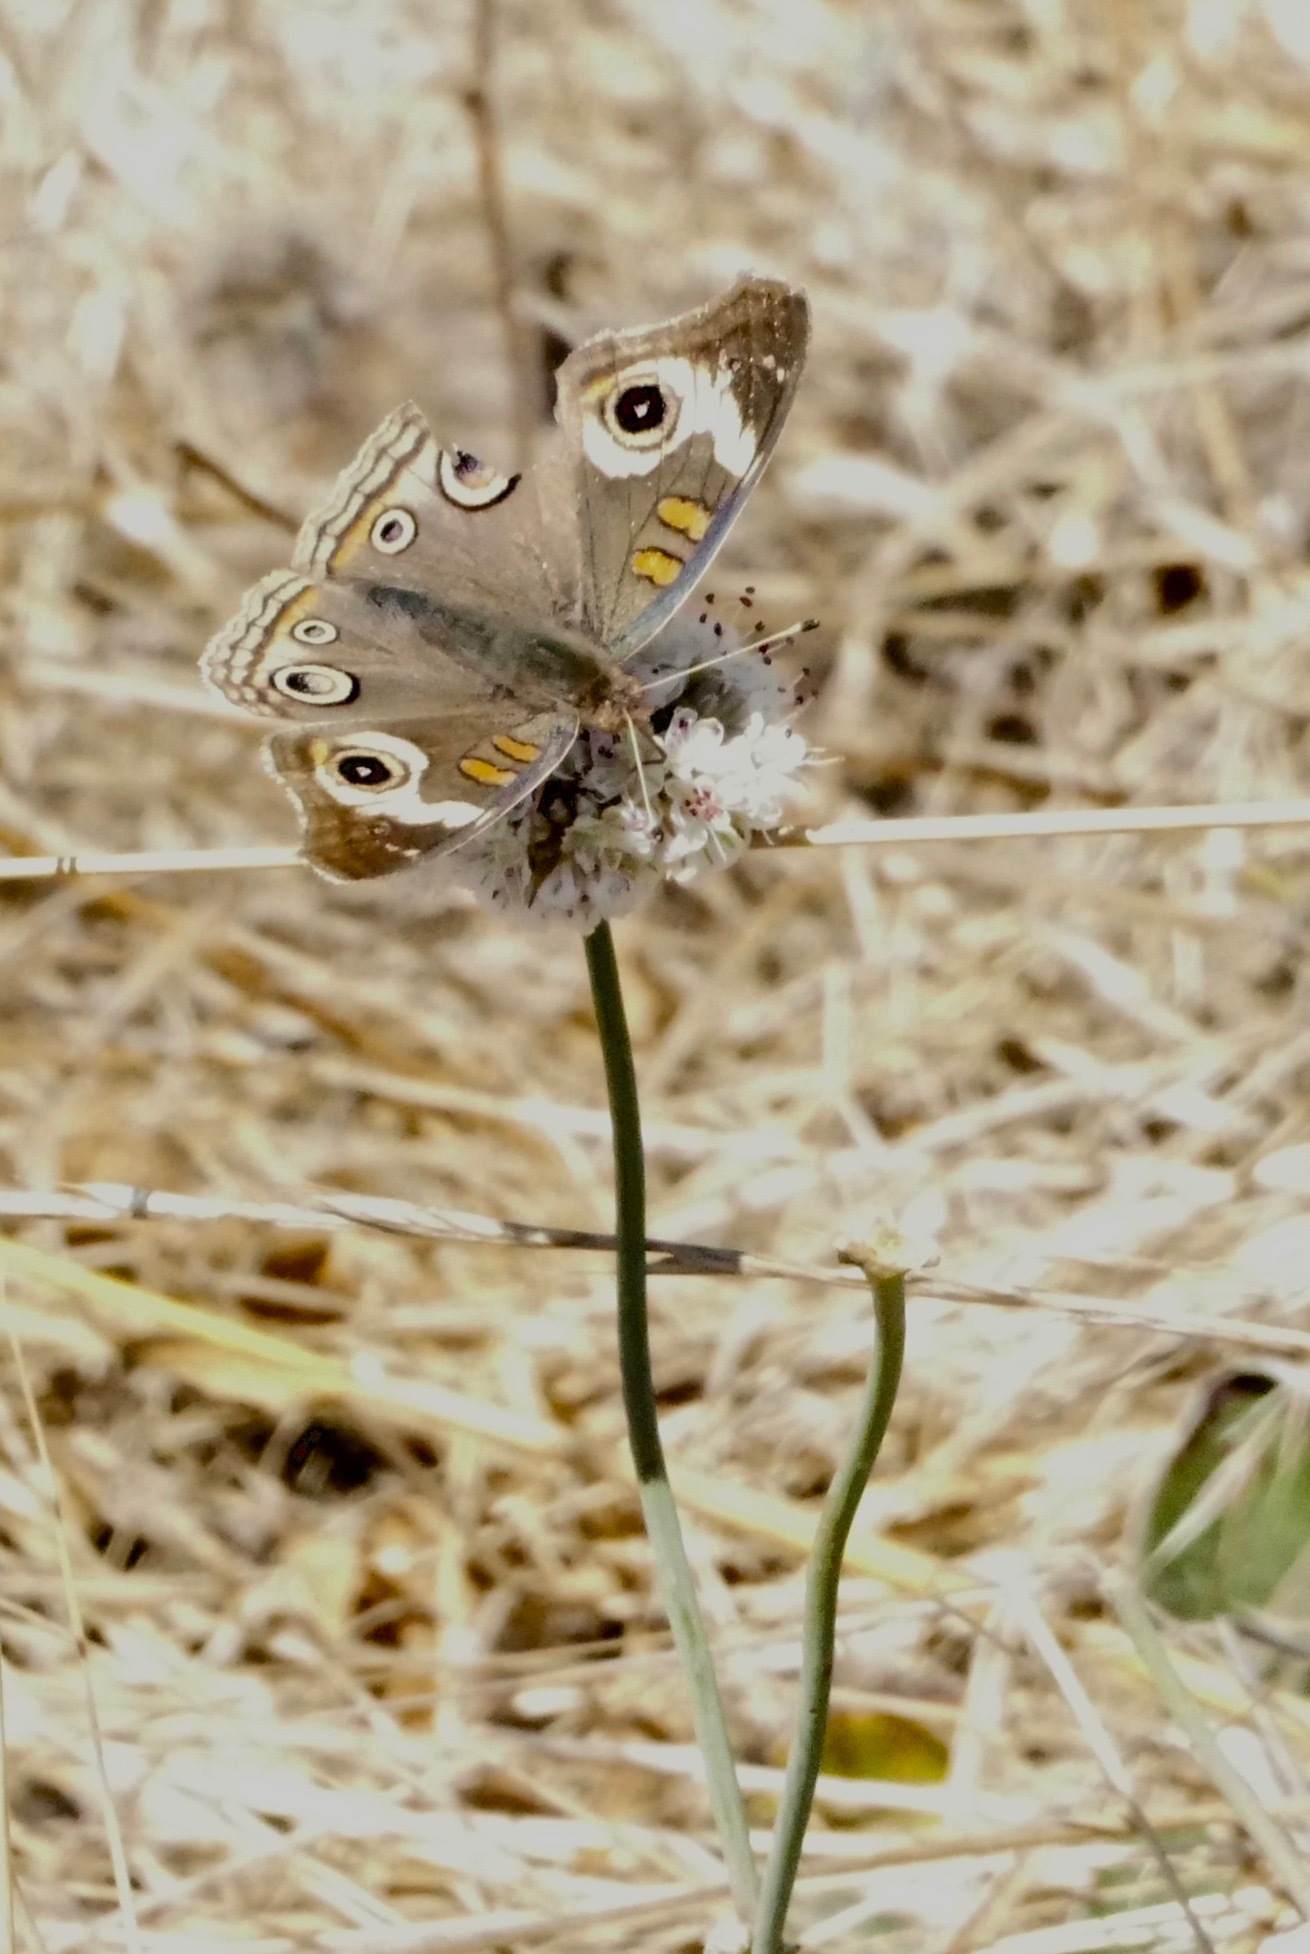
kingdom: Animalia
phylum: Arthropoda
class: Insecta
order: Lepidoptera
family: Nymphalidae
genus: Junonia
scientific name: Junonia grisea
